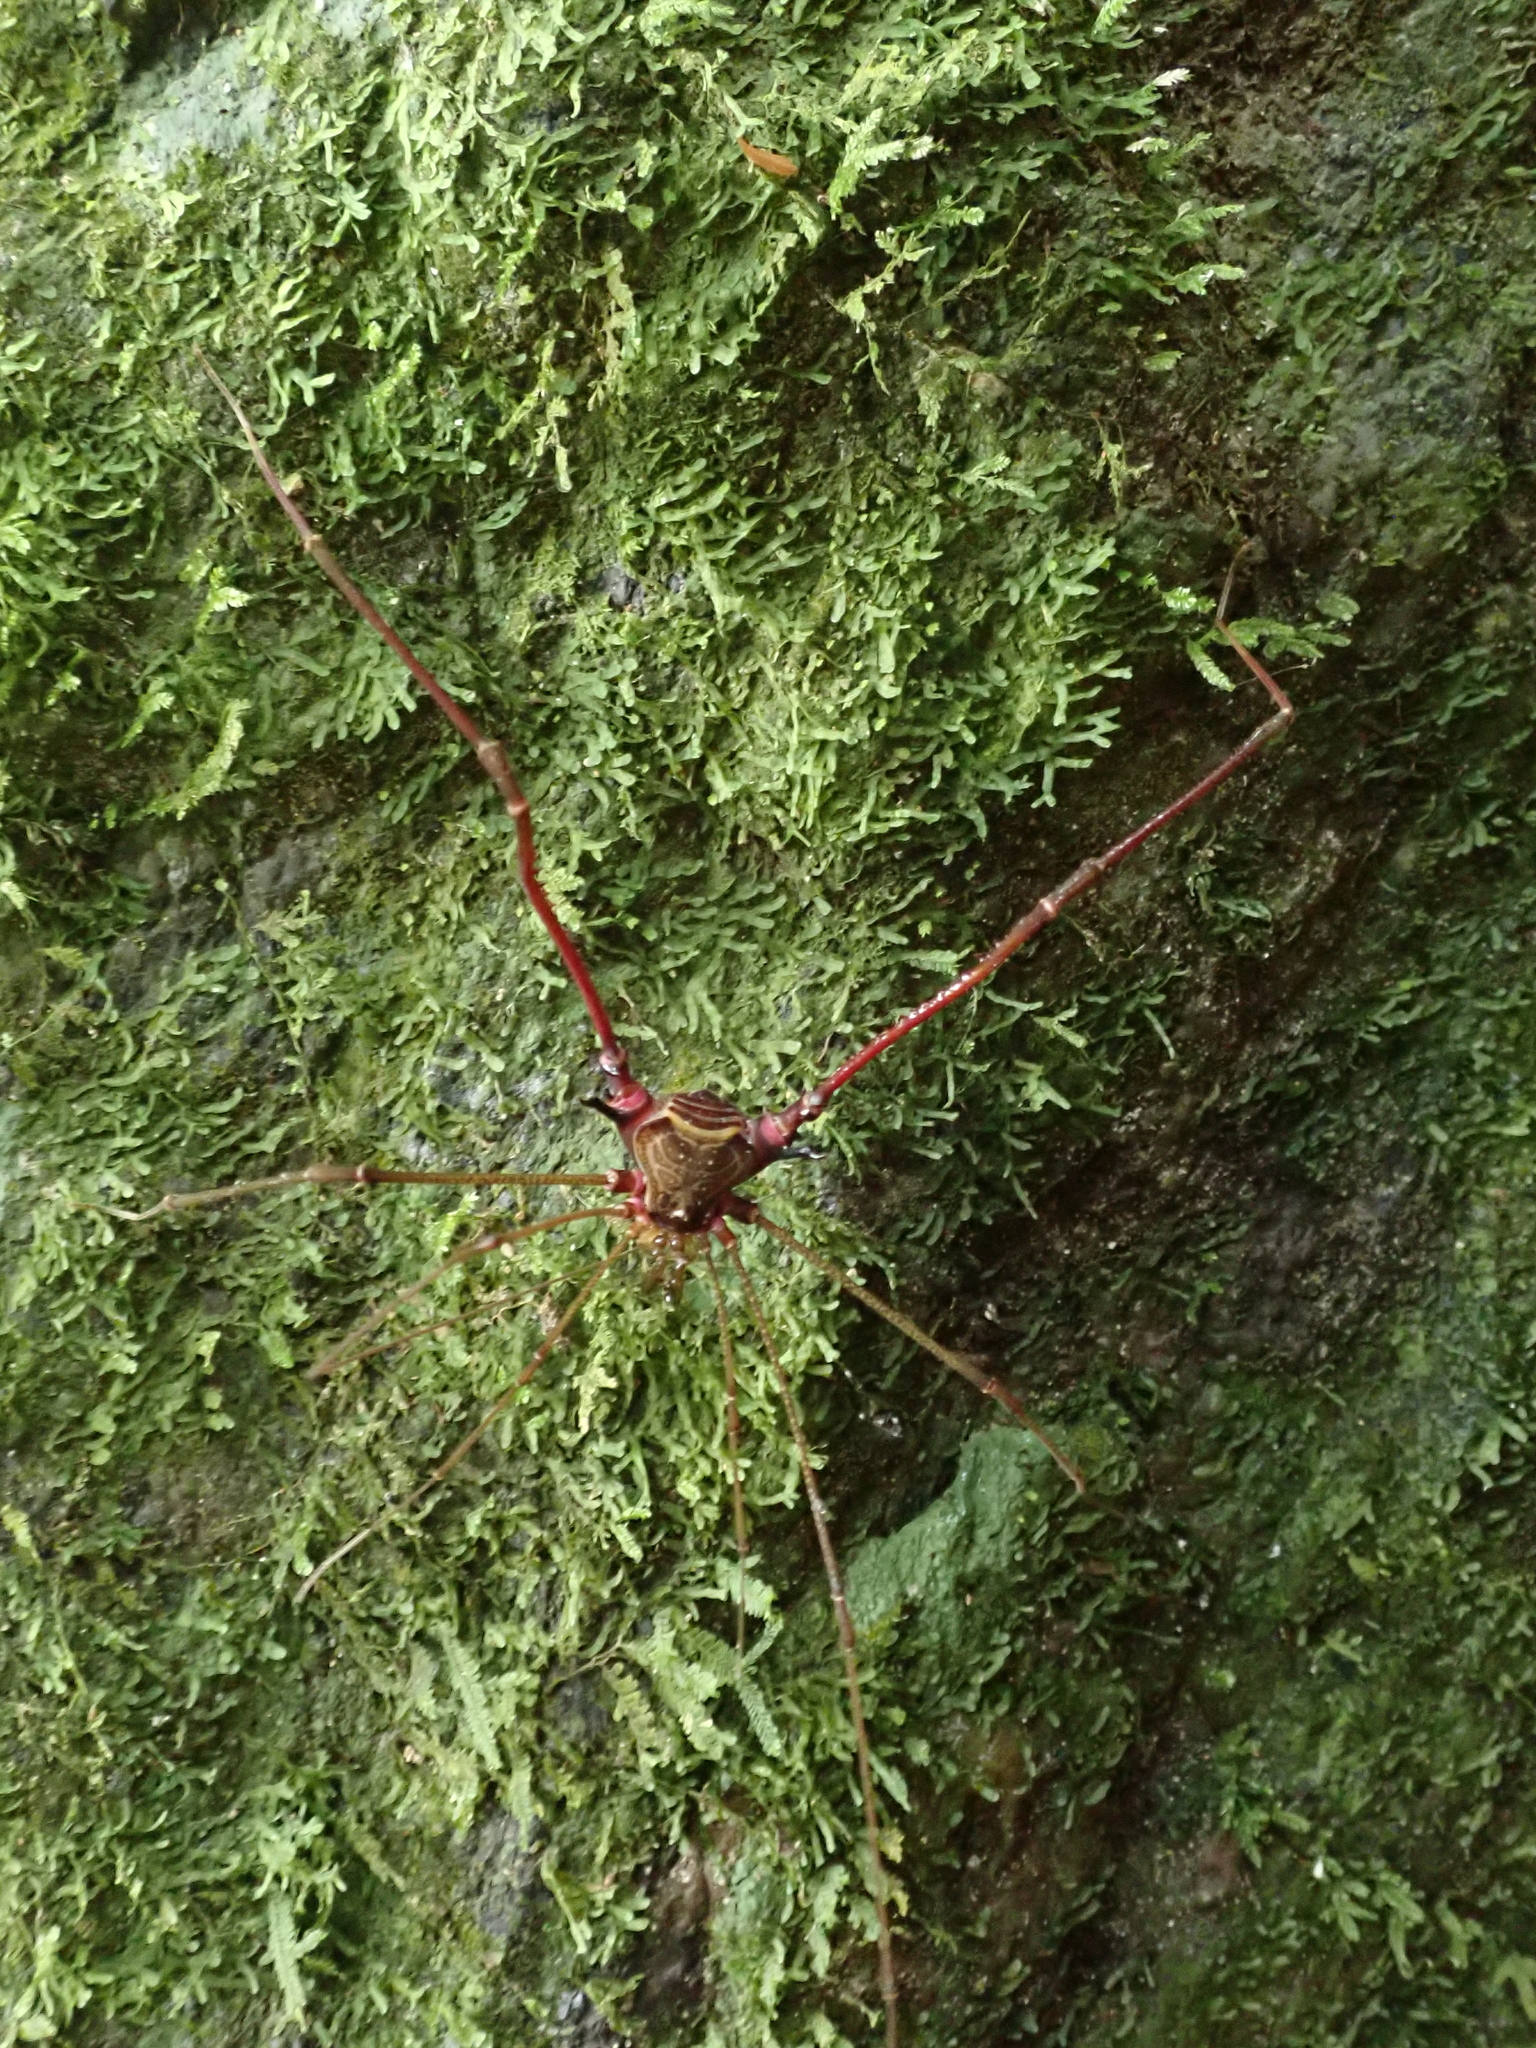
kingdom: Animalia
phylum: Arthropoda
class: Arachnida
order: Opiliones
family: Gonyleptidae
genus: Serracutisoma
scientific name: Serracutisoma inerme
